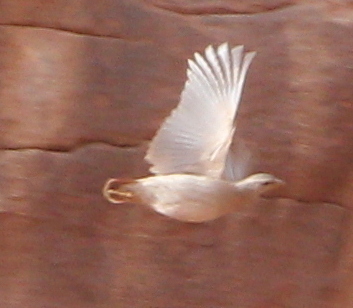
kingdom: Animalia
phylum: Chordata
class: Aves
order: Galliformes
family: Phasianidae
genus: Ammoperdix
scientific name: Ammoperdix heyi
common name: Sand partridge
